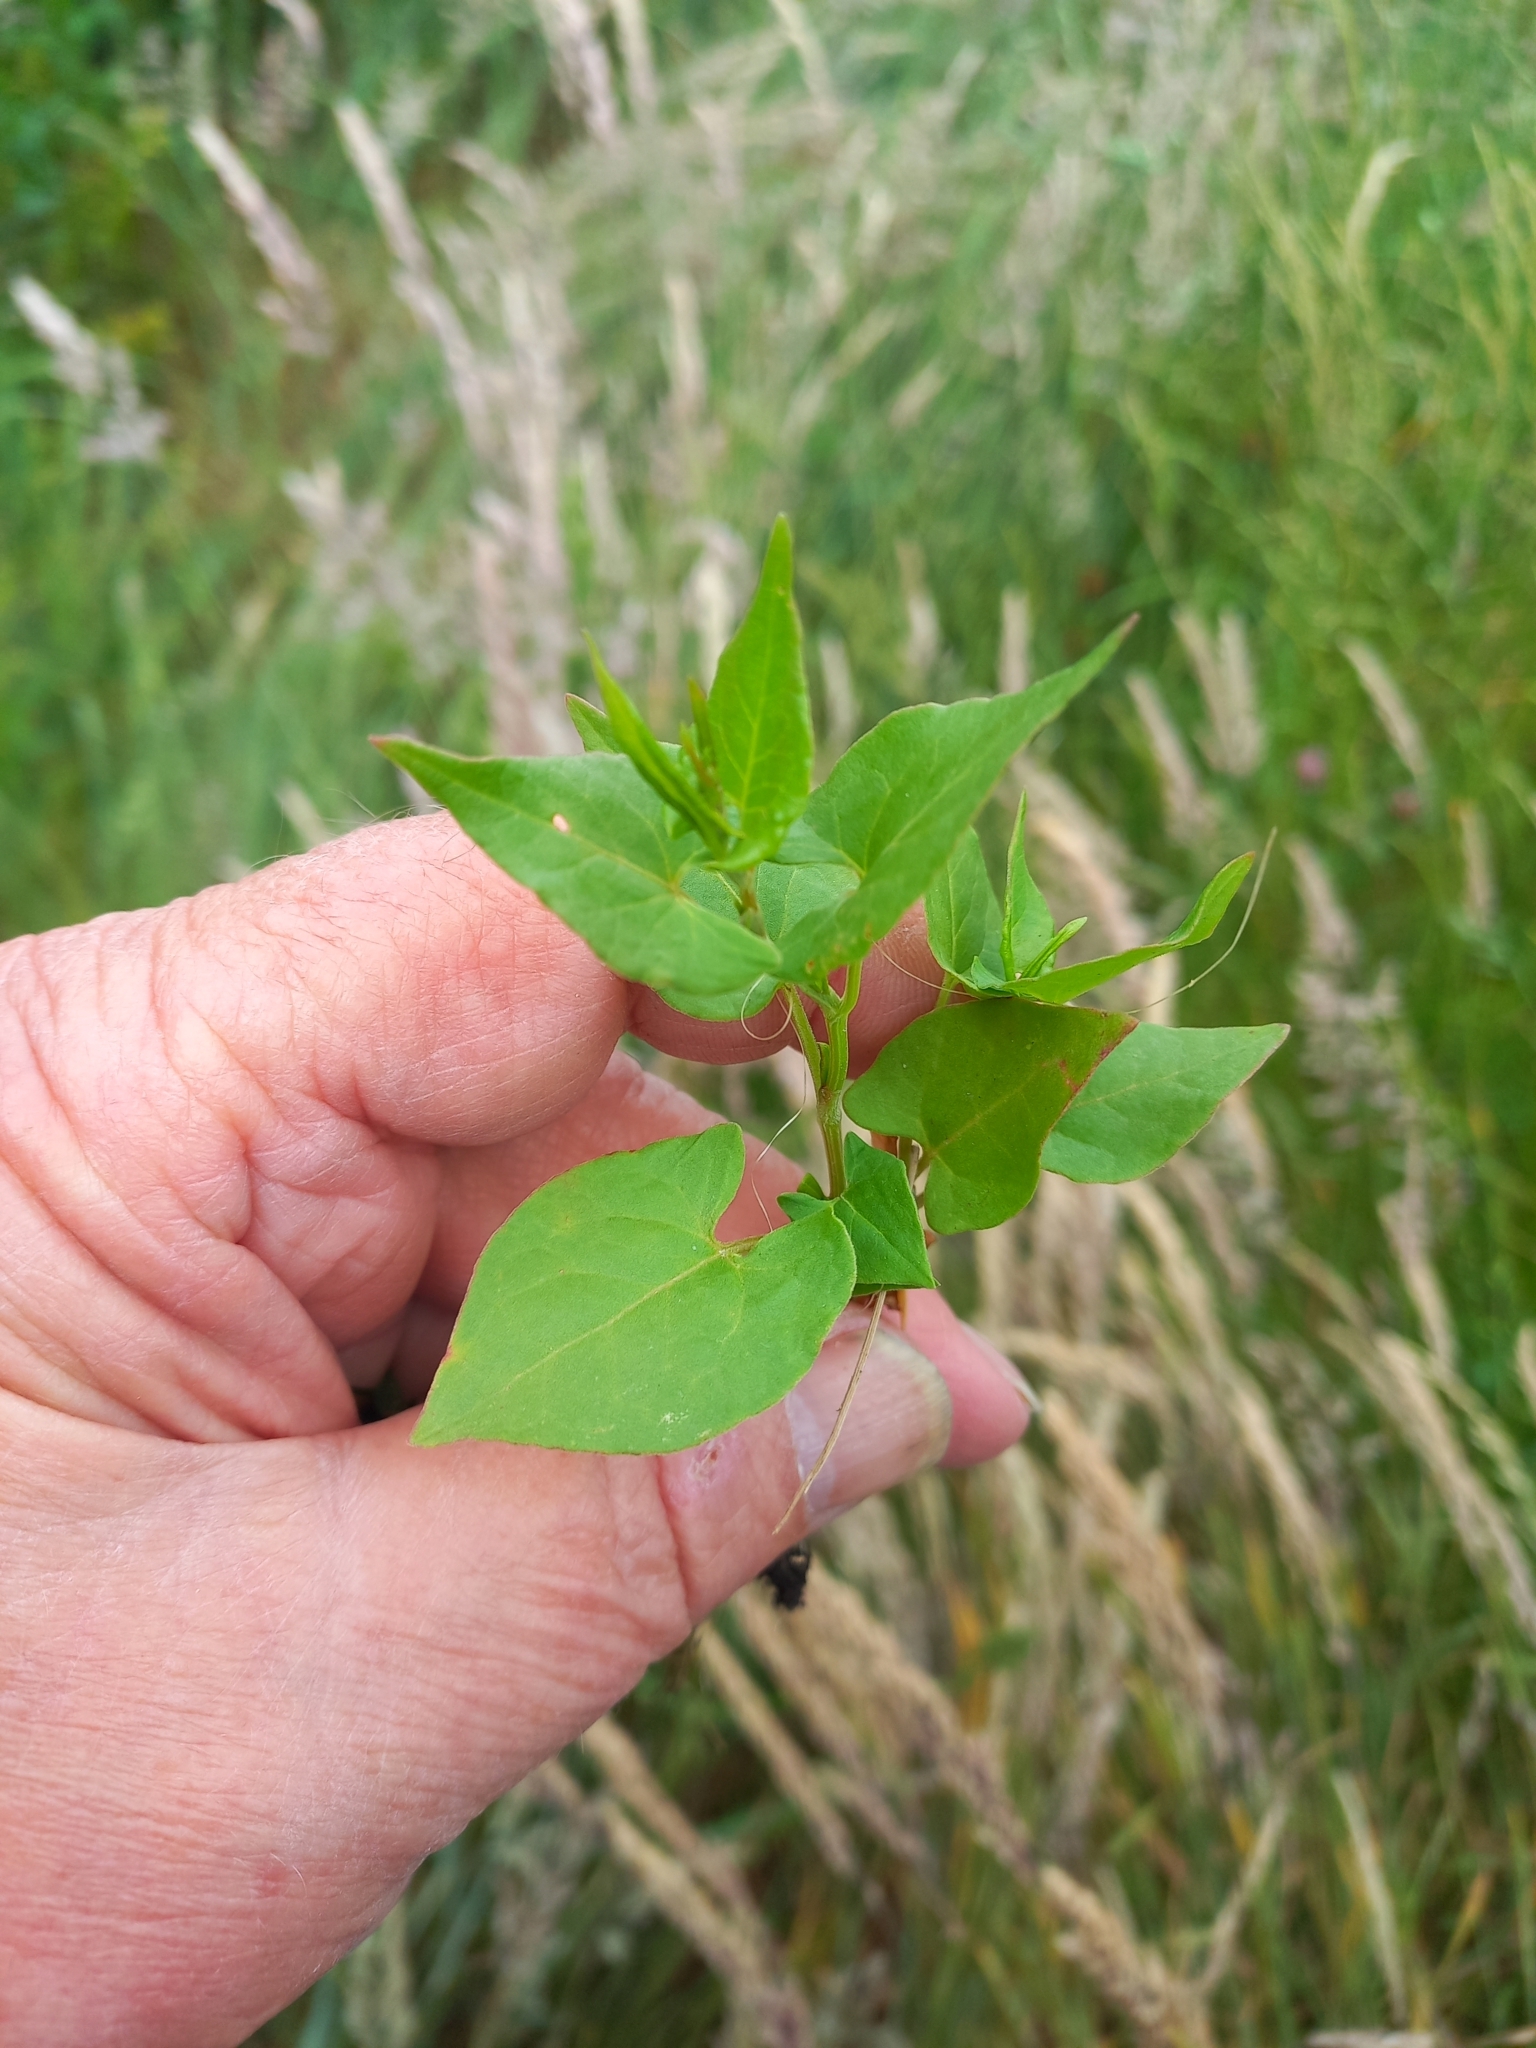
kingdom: Plantae
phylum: Tracheophyta
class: Magnoliopsida
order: Caryophyllales
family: Polygonaceae
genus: Fallopia
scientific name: Fallopia convolvulus
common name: Black bindweed
